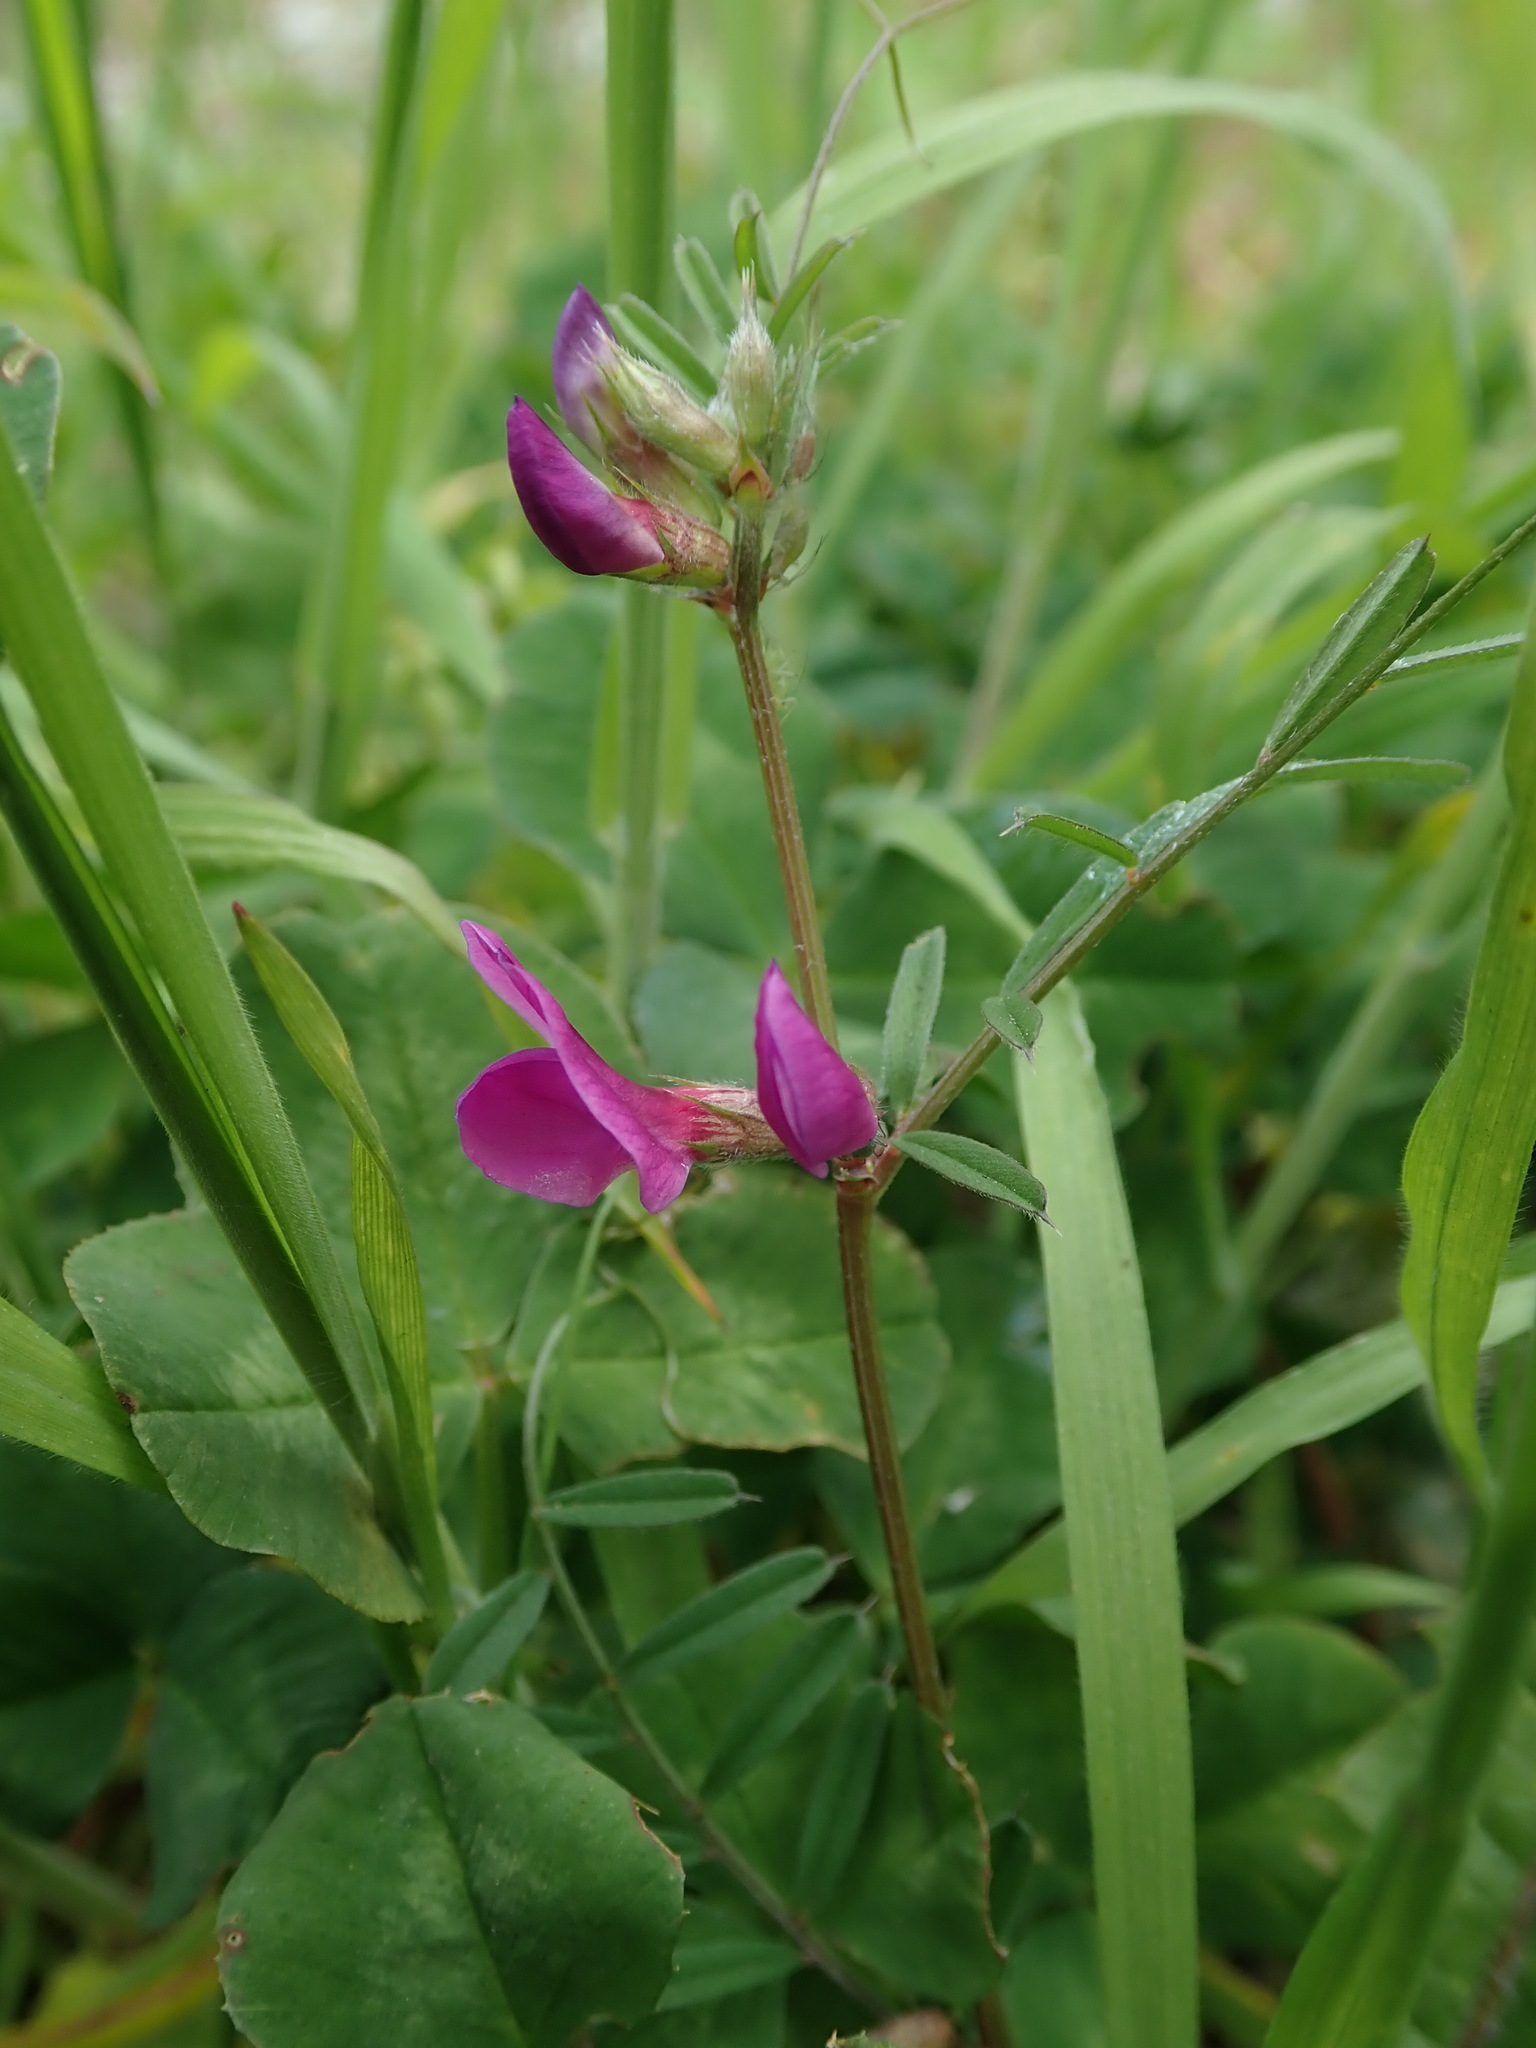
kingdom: Plantae
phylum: Tracheophyta
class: Magnoliopsida
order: Fabales
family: Fabaceae
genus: Vicia
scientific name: Vicia sativa
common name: Garden vetch
